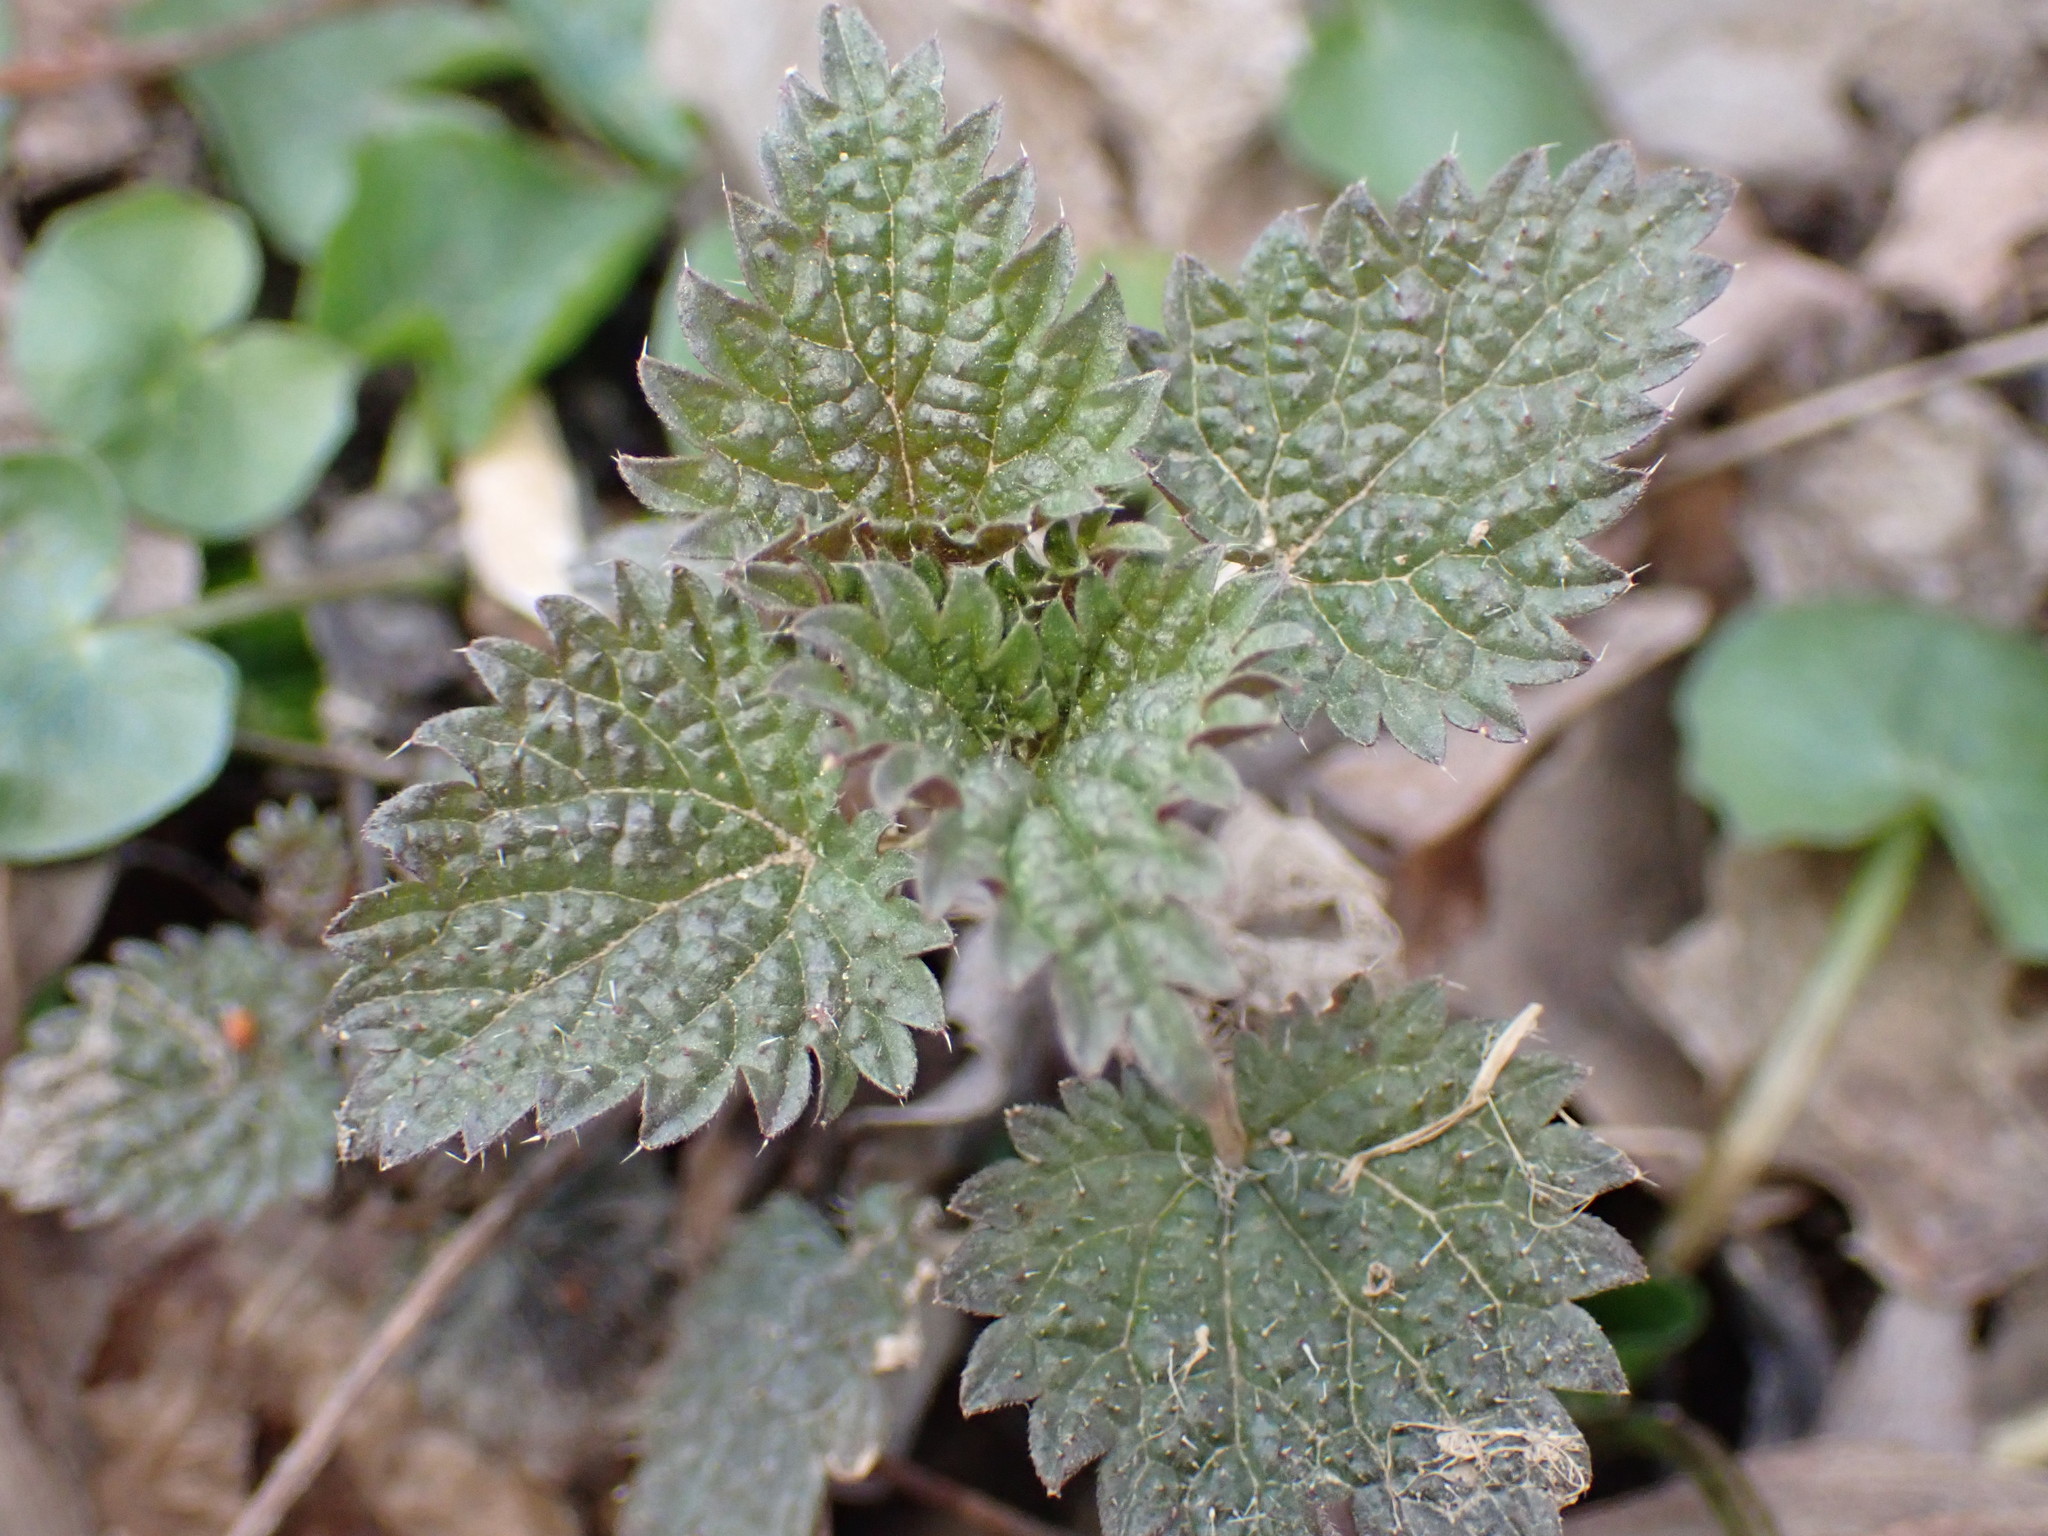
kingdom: Plantae
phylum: Tracheophyta
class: Magnoliopsida
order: Rosales
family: Urticaceae
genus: Urtica
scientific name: Urtica dioica
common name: Common nettle
